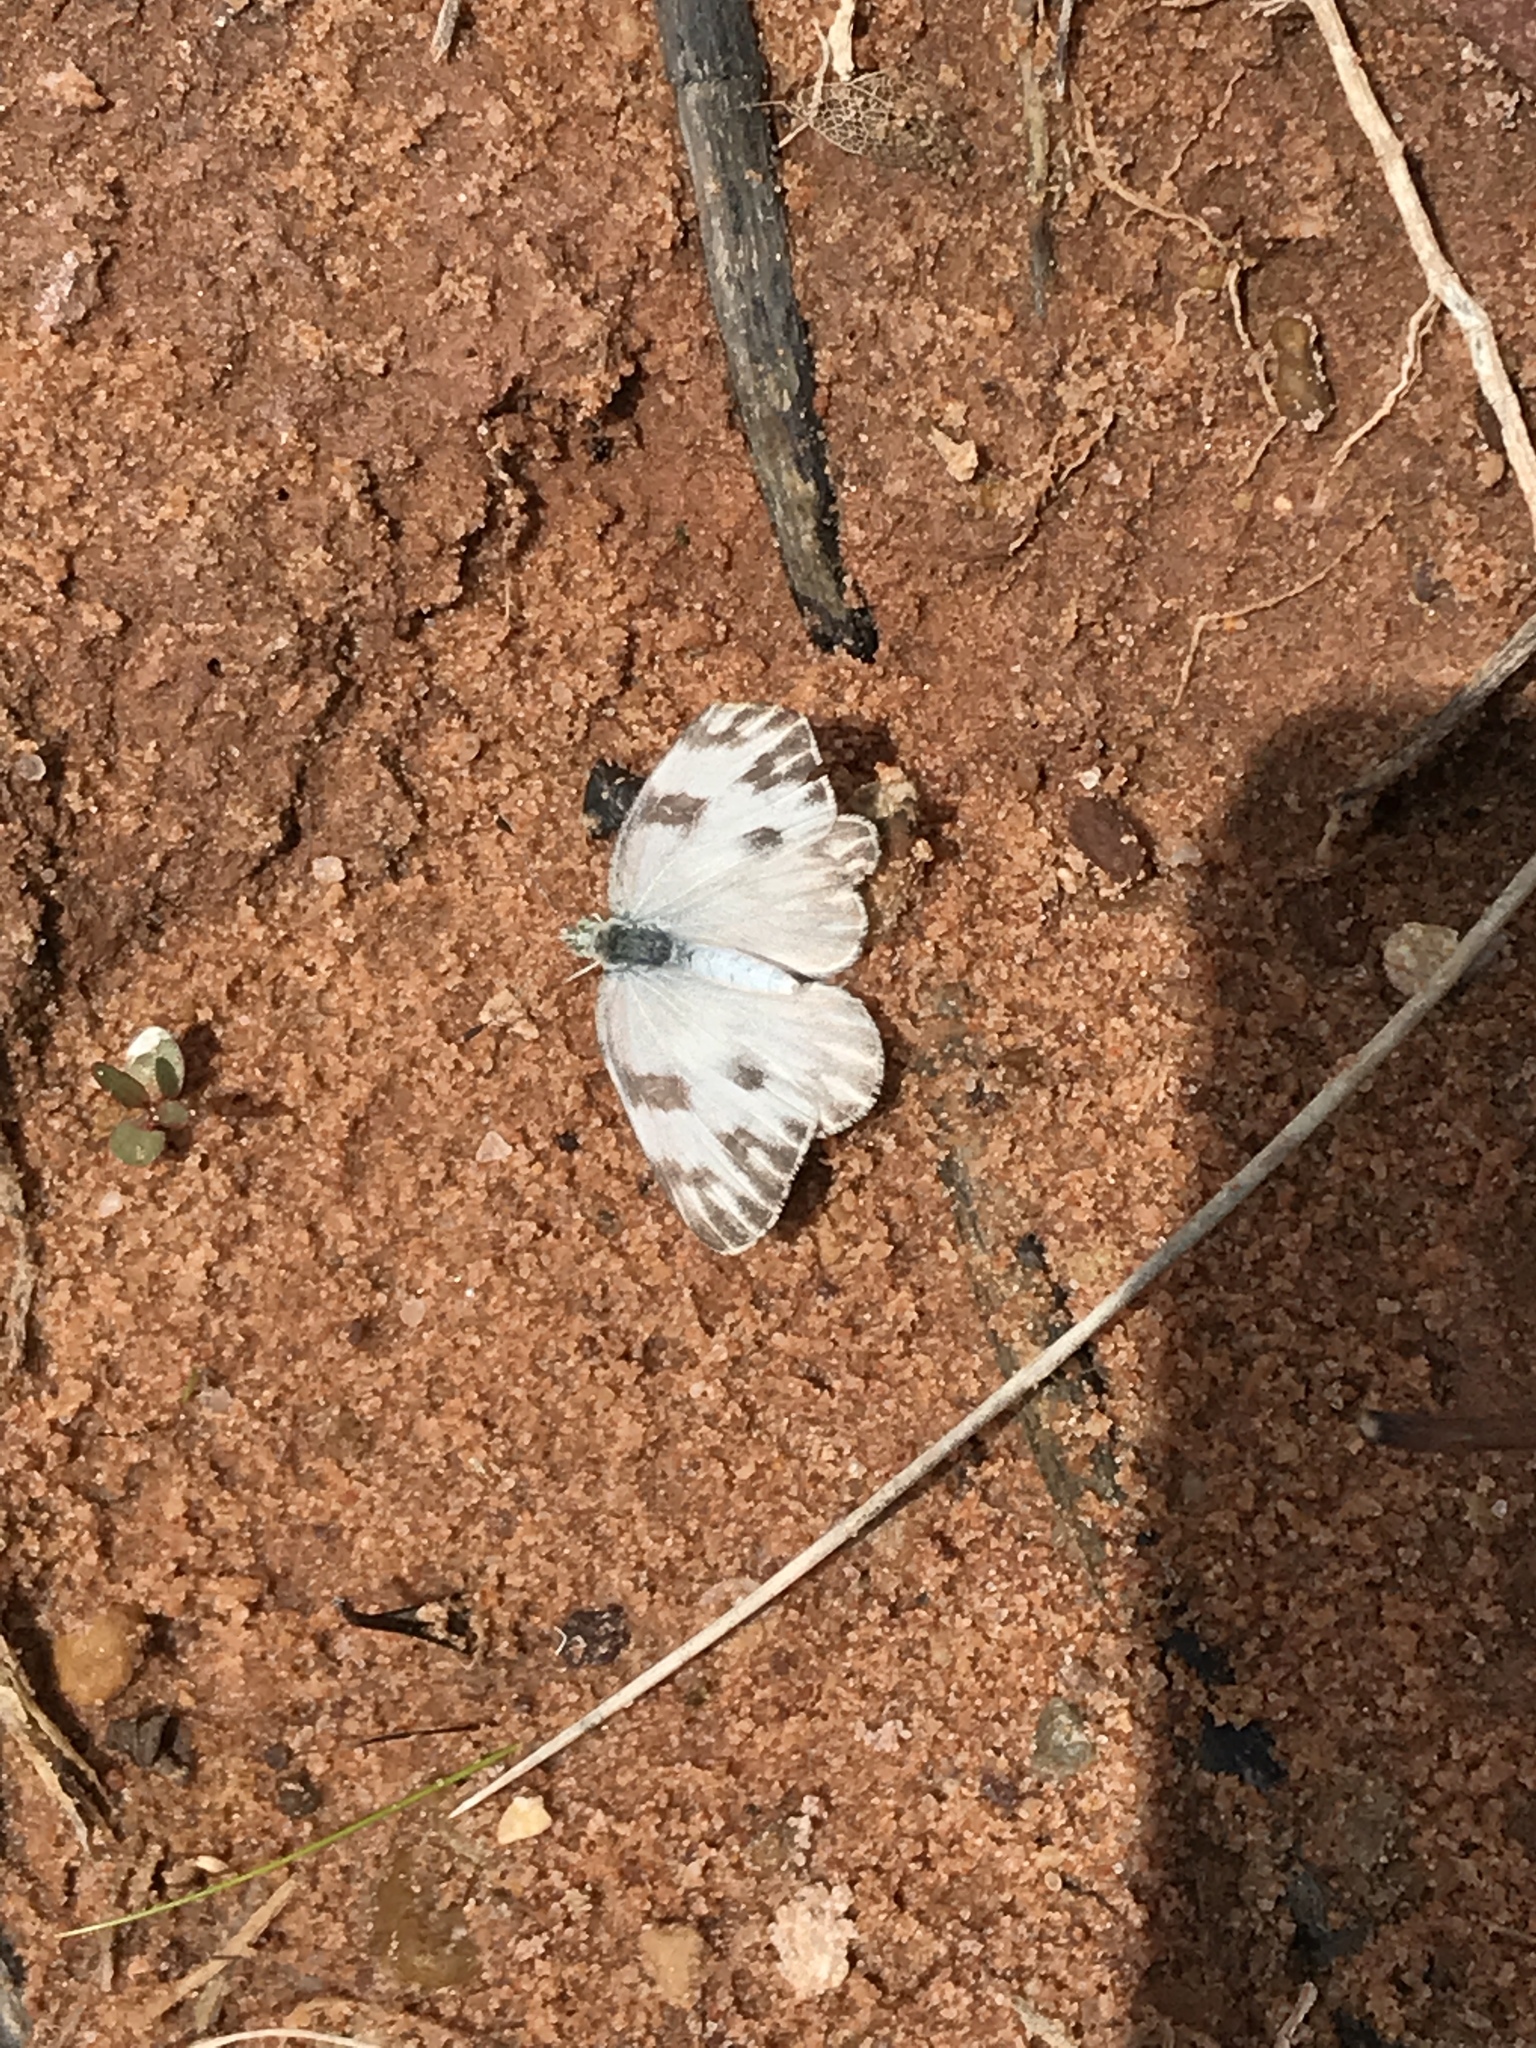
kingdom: Animalia
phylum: Arthropoda
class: Insecta
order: Lepidoptera
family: Pieridae
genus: Pontia
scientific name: Pontia protodice
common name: Checkered white
